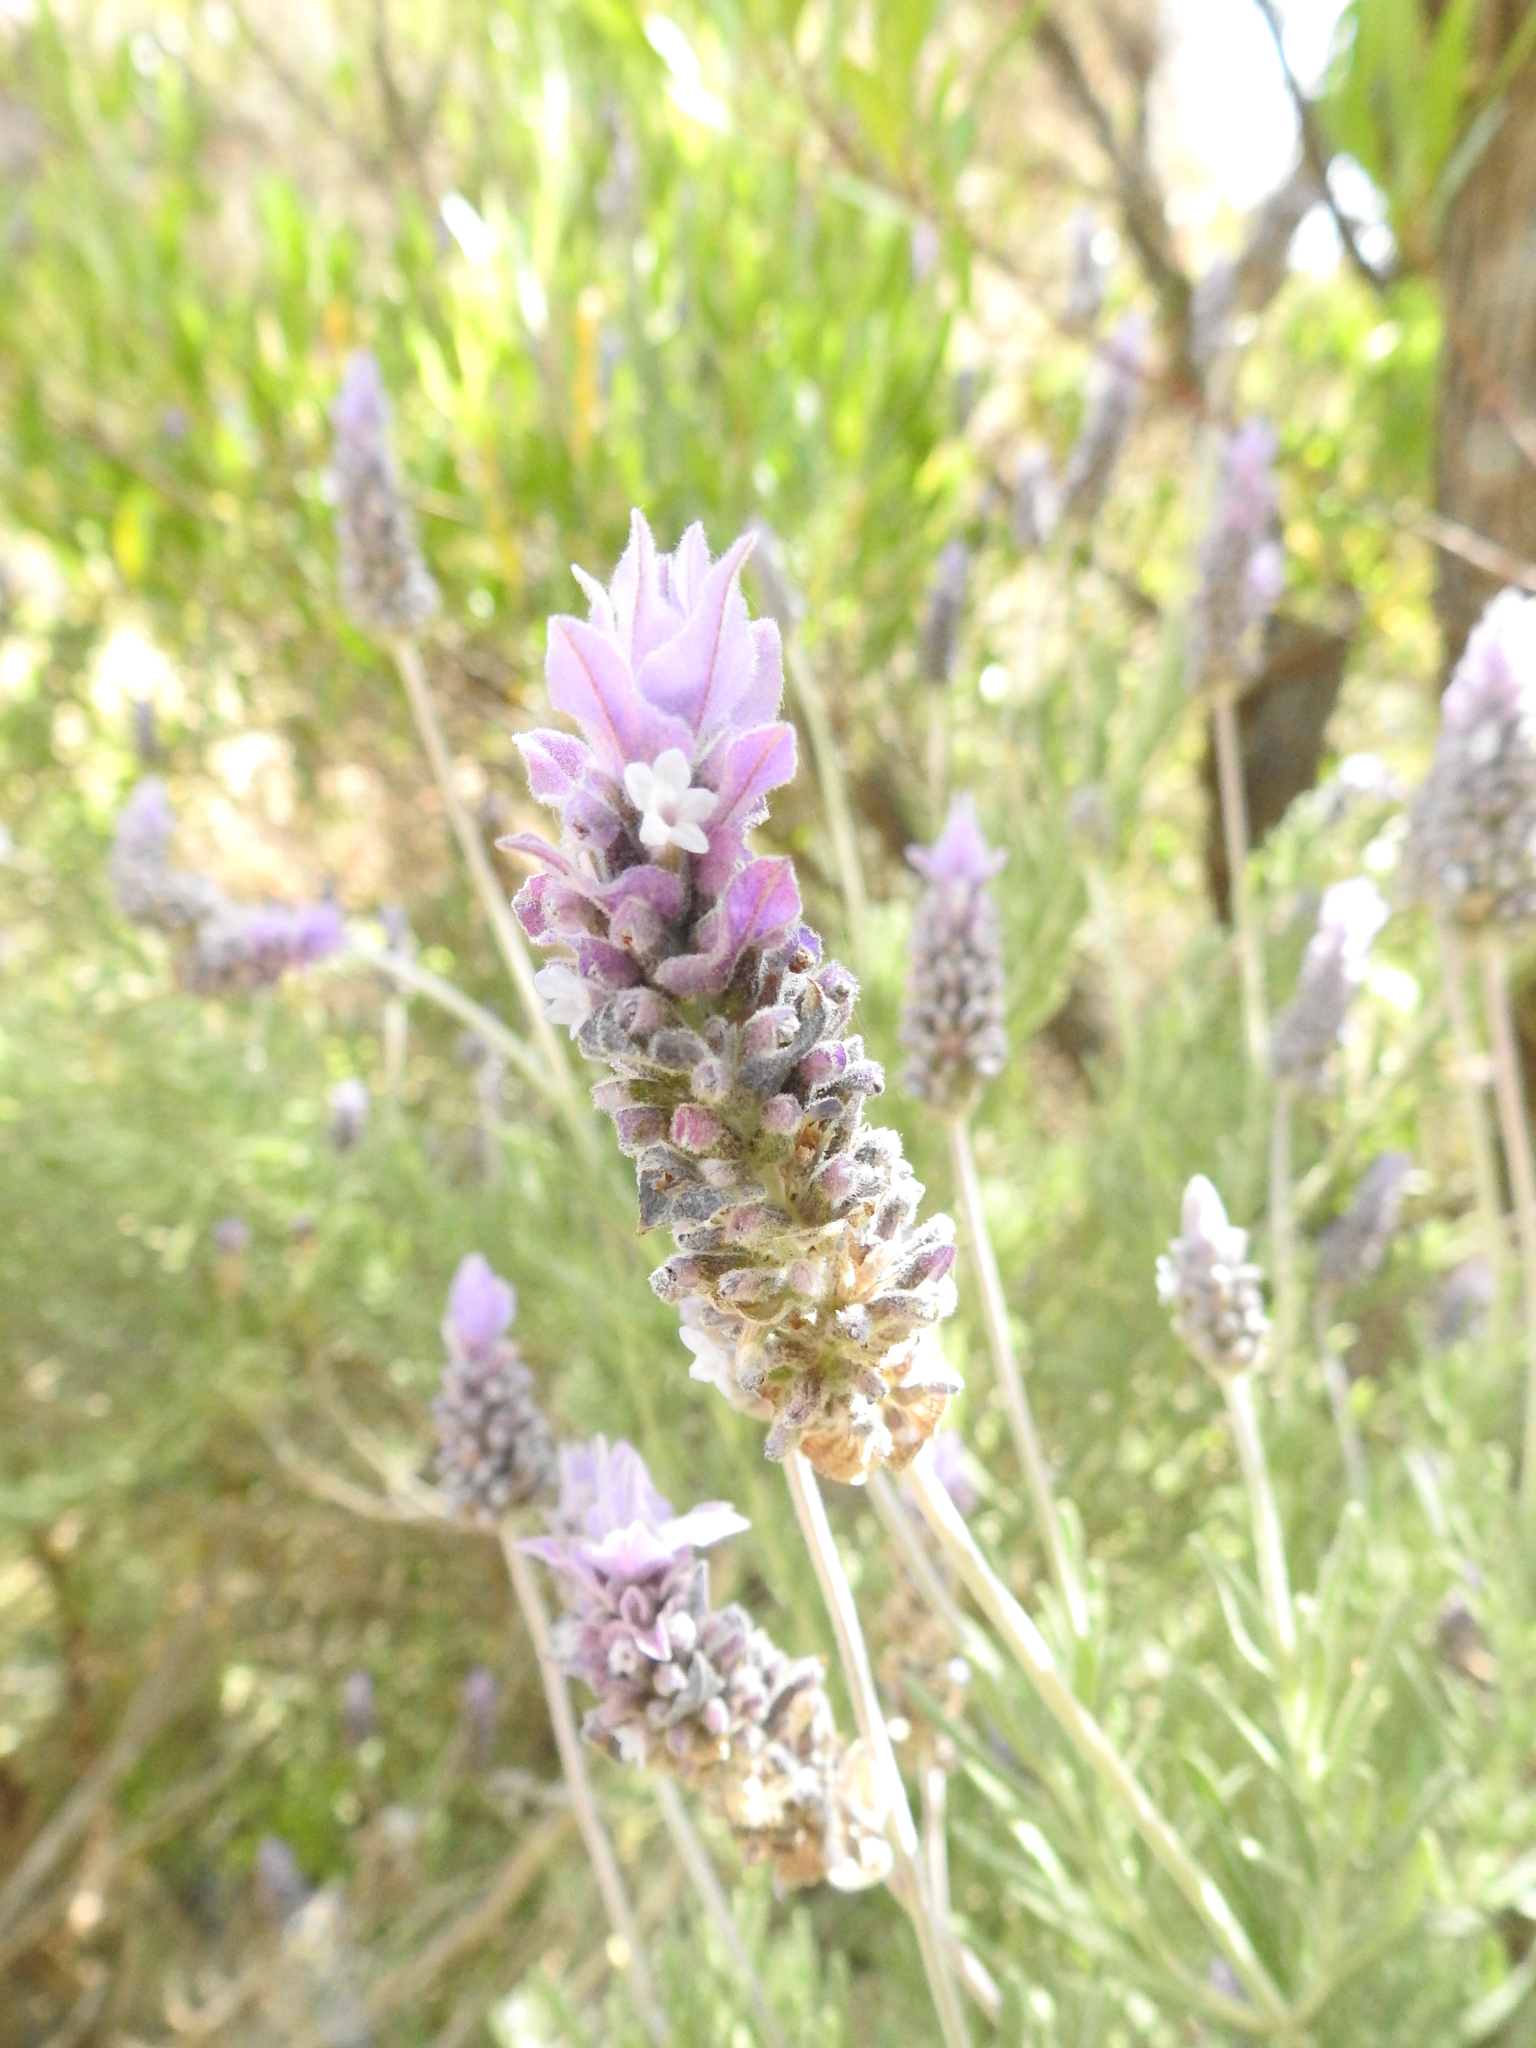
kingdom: Plantae
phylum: Tracheophyta
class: Magnoliopsida
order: Lamiales
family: Lamiaceae
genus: Lavandula
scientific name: Lavandula dentata
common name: French lavender
